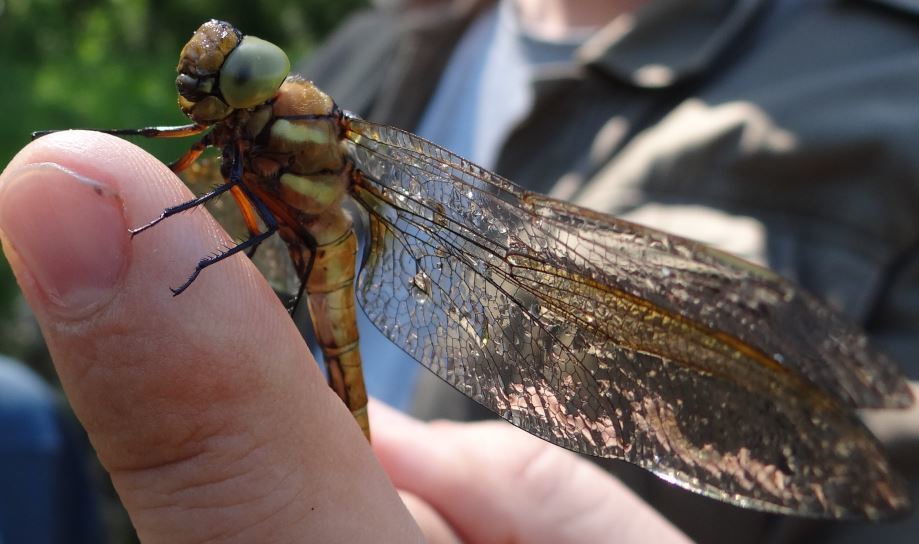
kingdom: Animalia
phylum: Arthropoda
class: Insecta
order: Odonata
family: Aeshnidae
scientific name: Aeshnidae
